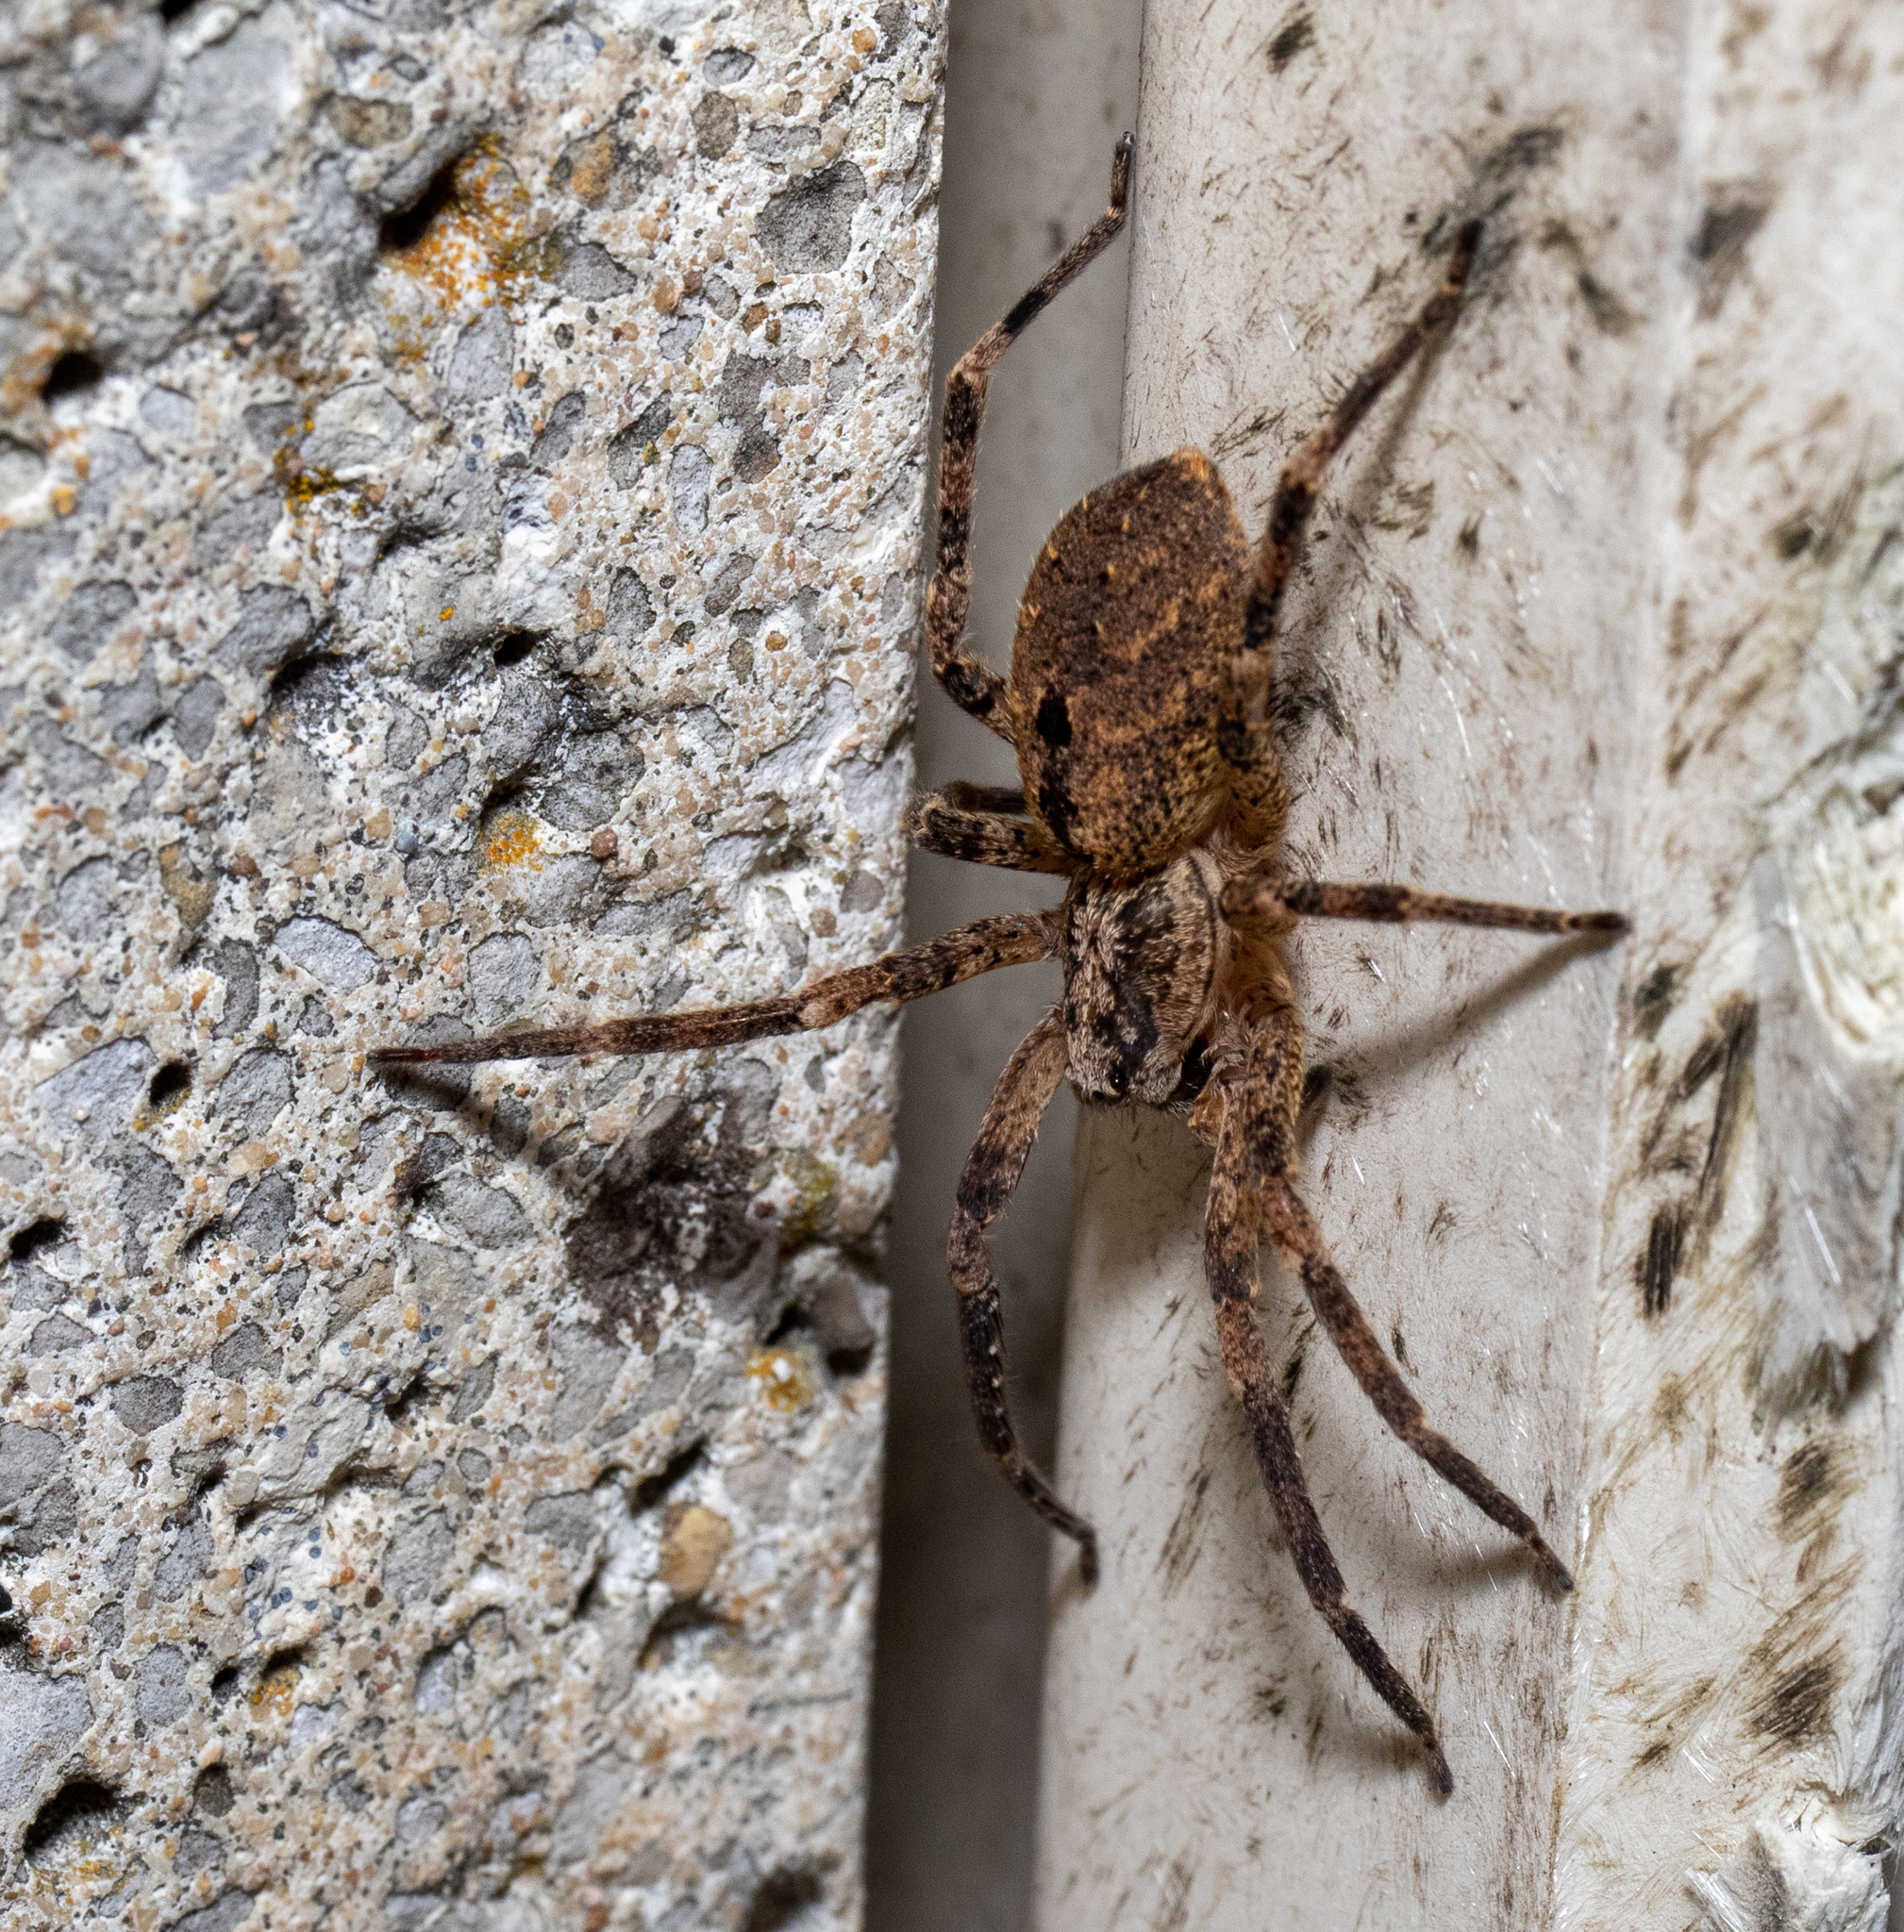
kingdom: Animalia
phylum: Arthropoda
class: Arachnida
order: Araneae
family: Zoropsidae
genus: Zoropsis
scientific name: Zoropsis spinimana
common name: Zoropsid spider
